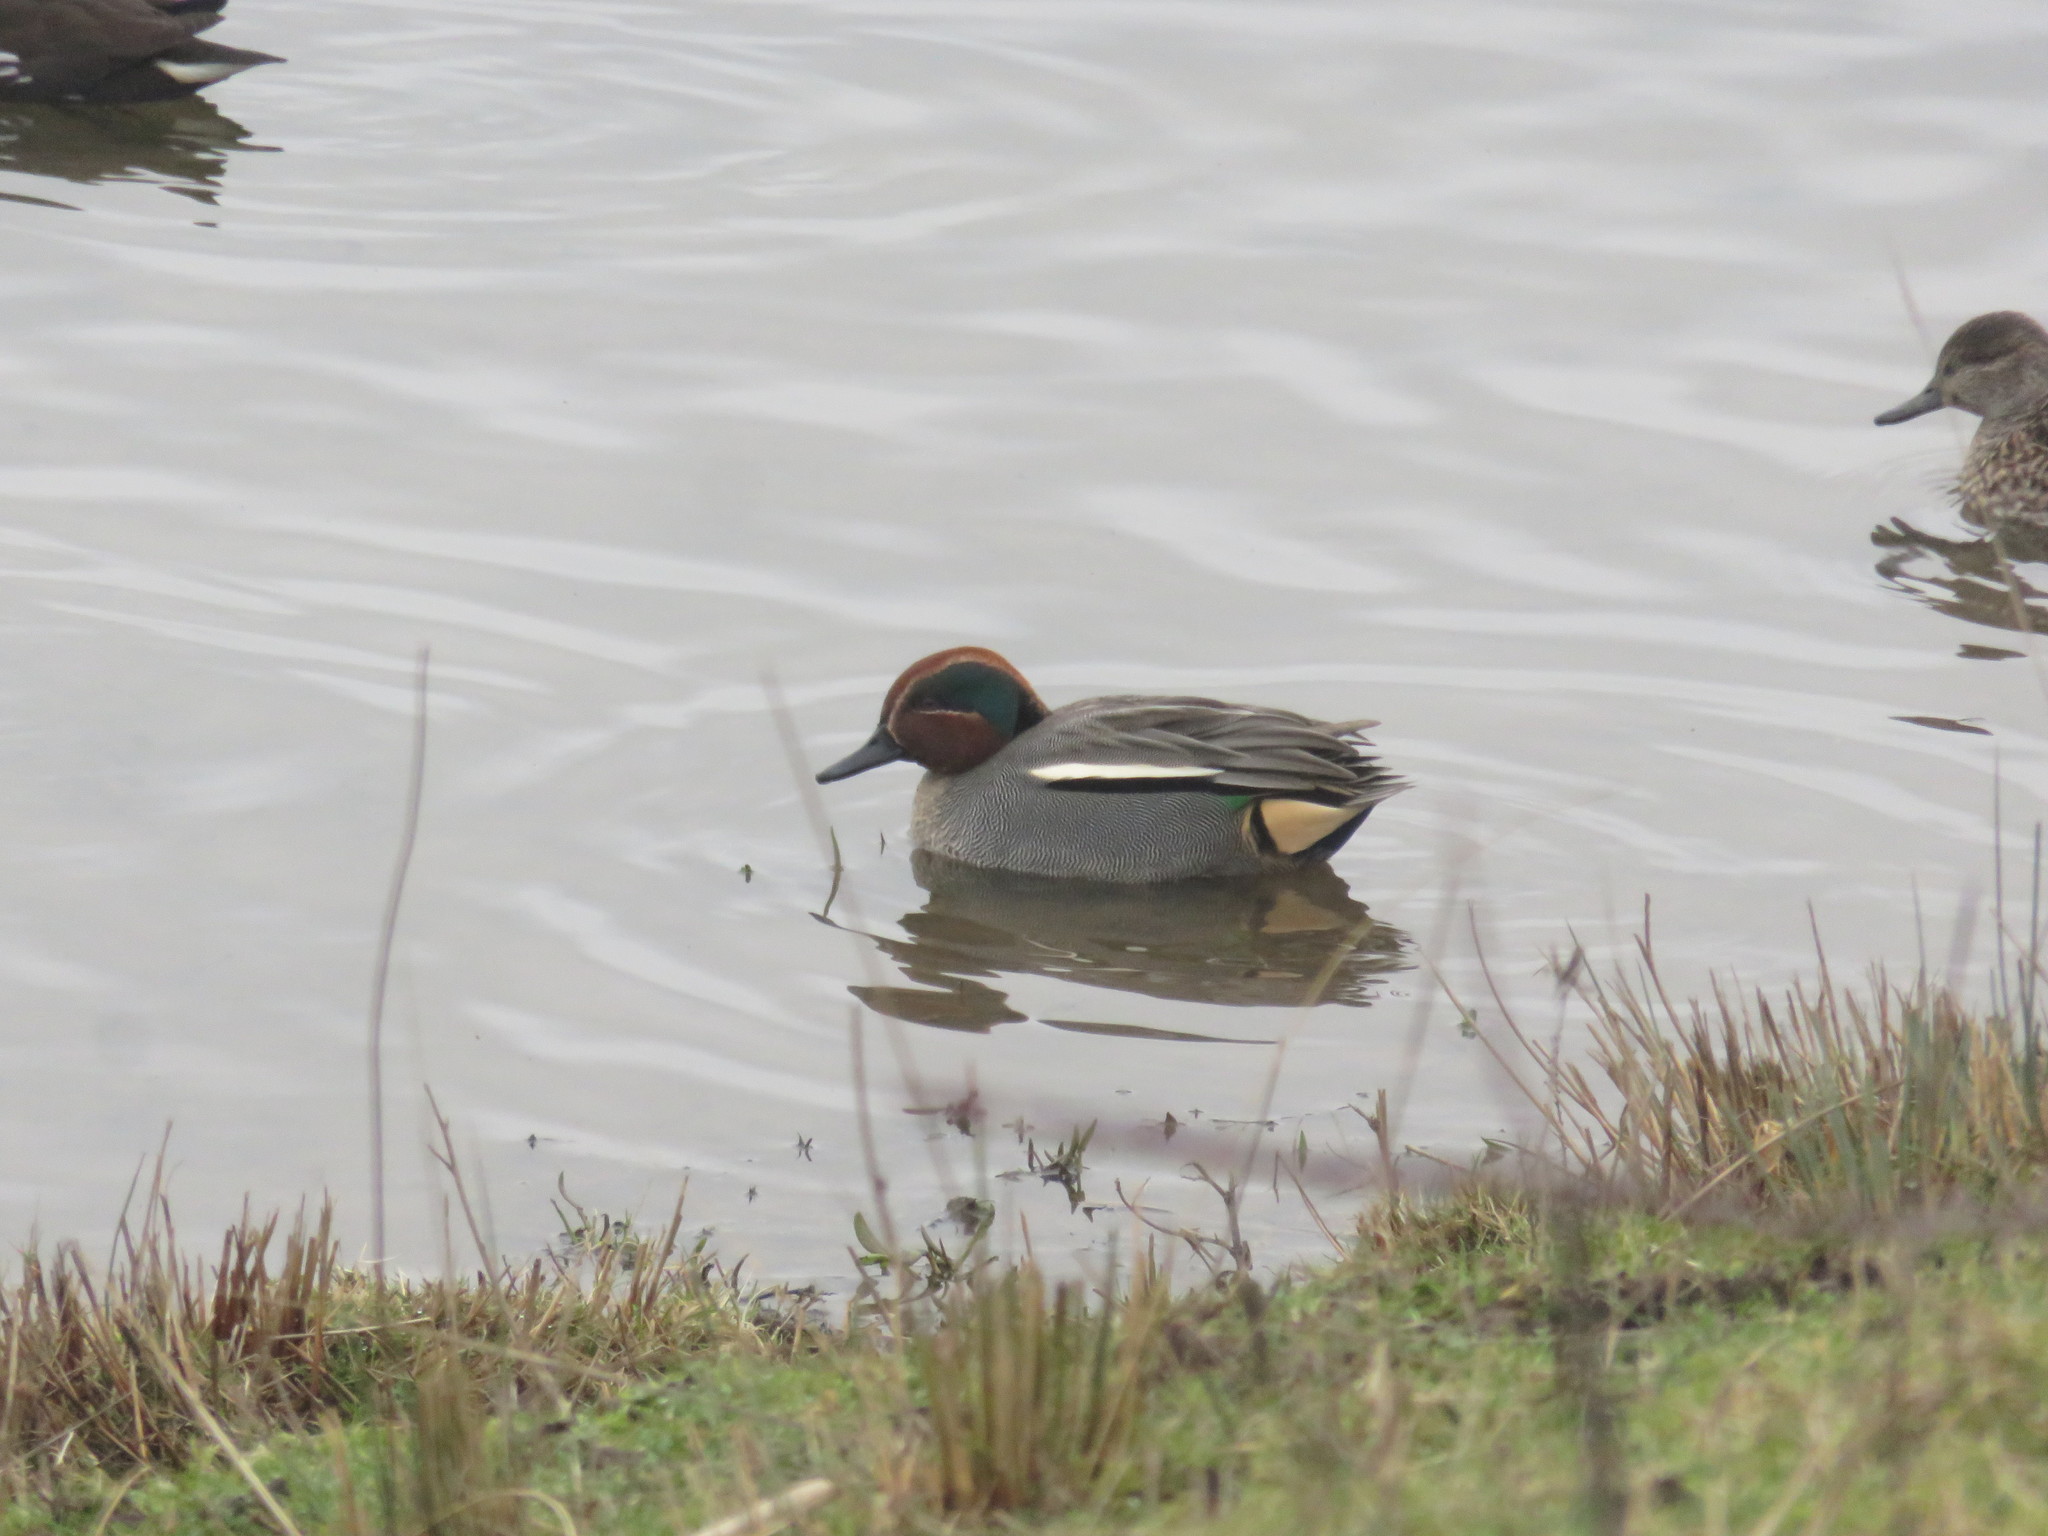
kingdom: Animalia
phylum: Chordata
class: Aves
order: Anseriformes
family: Anatidae
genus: Anas
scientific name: Anas crecca
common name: Eurasian teal
